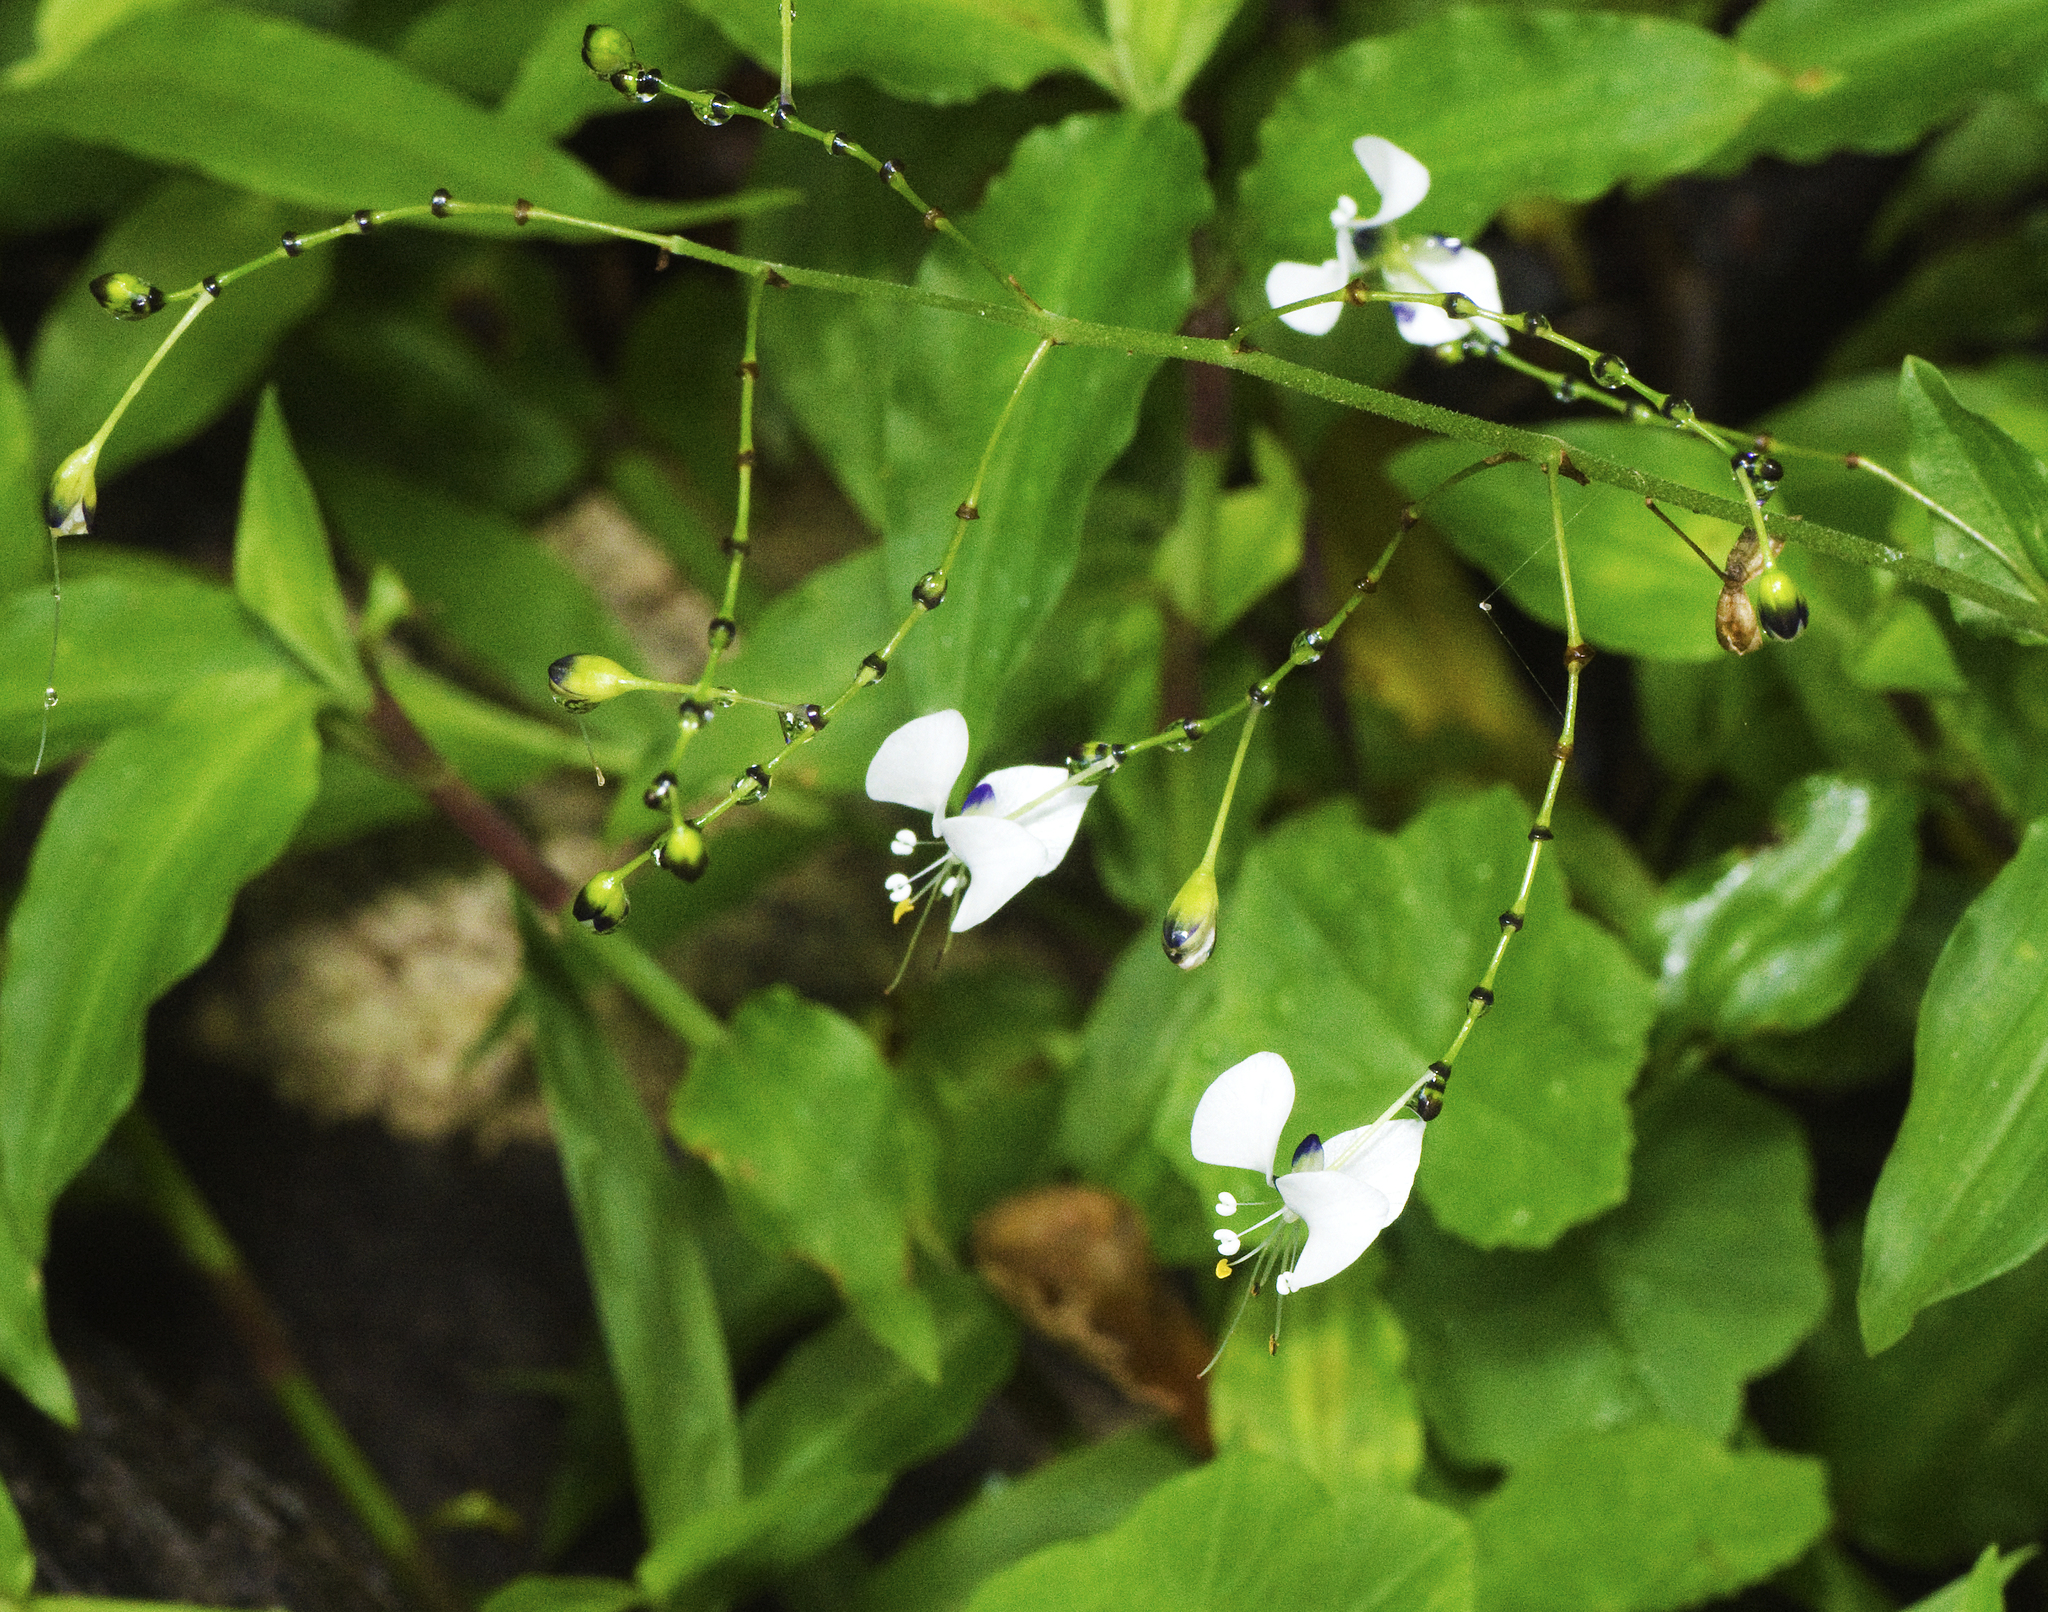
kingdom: Plantae
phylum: Tracheophyta
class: Liliopsida
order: Commelinales
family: Commelinaceae
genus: Aneilema
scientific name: Aneilema acuminatum
